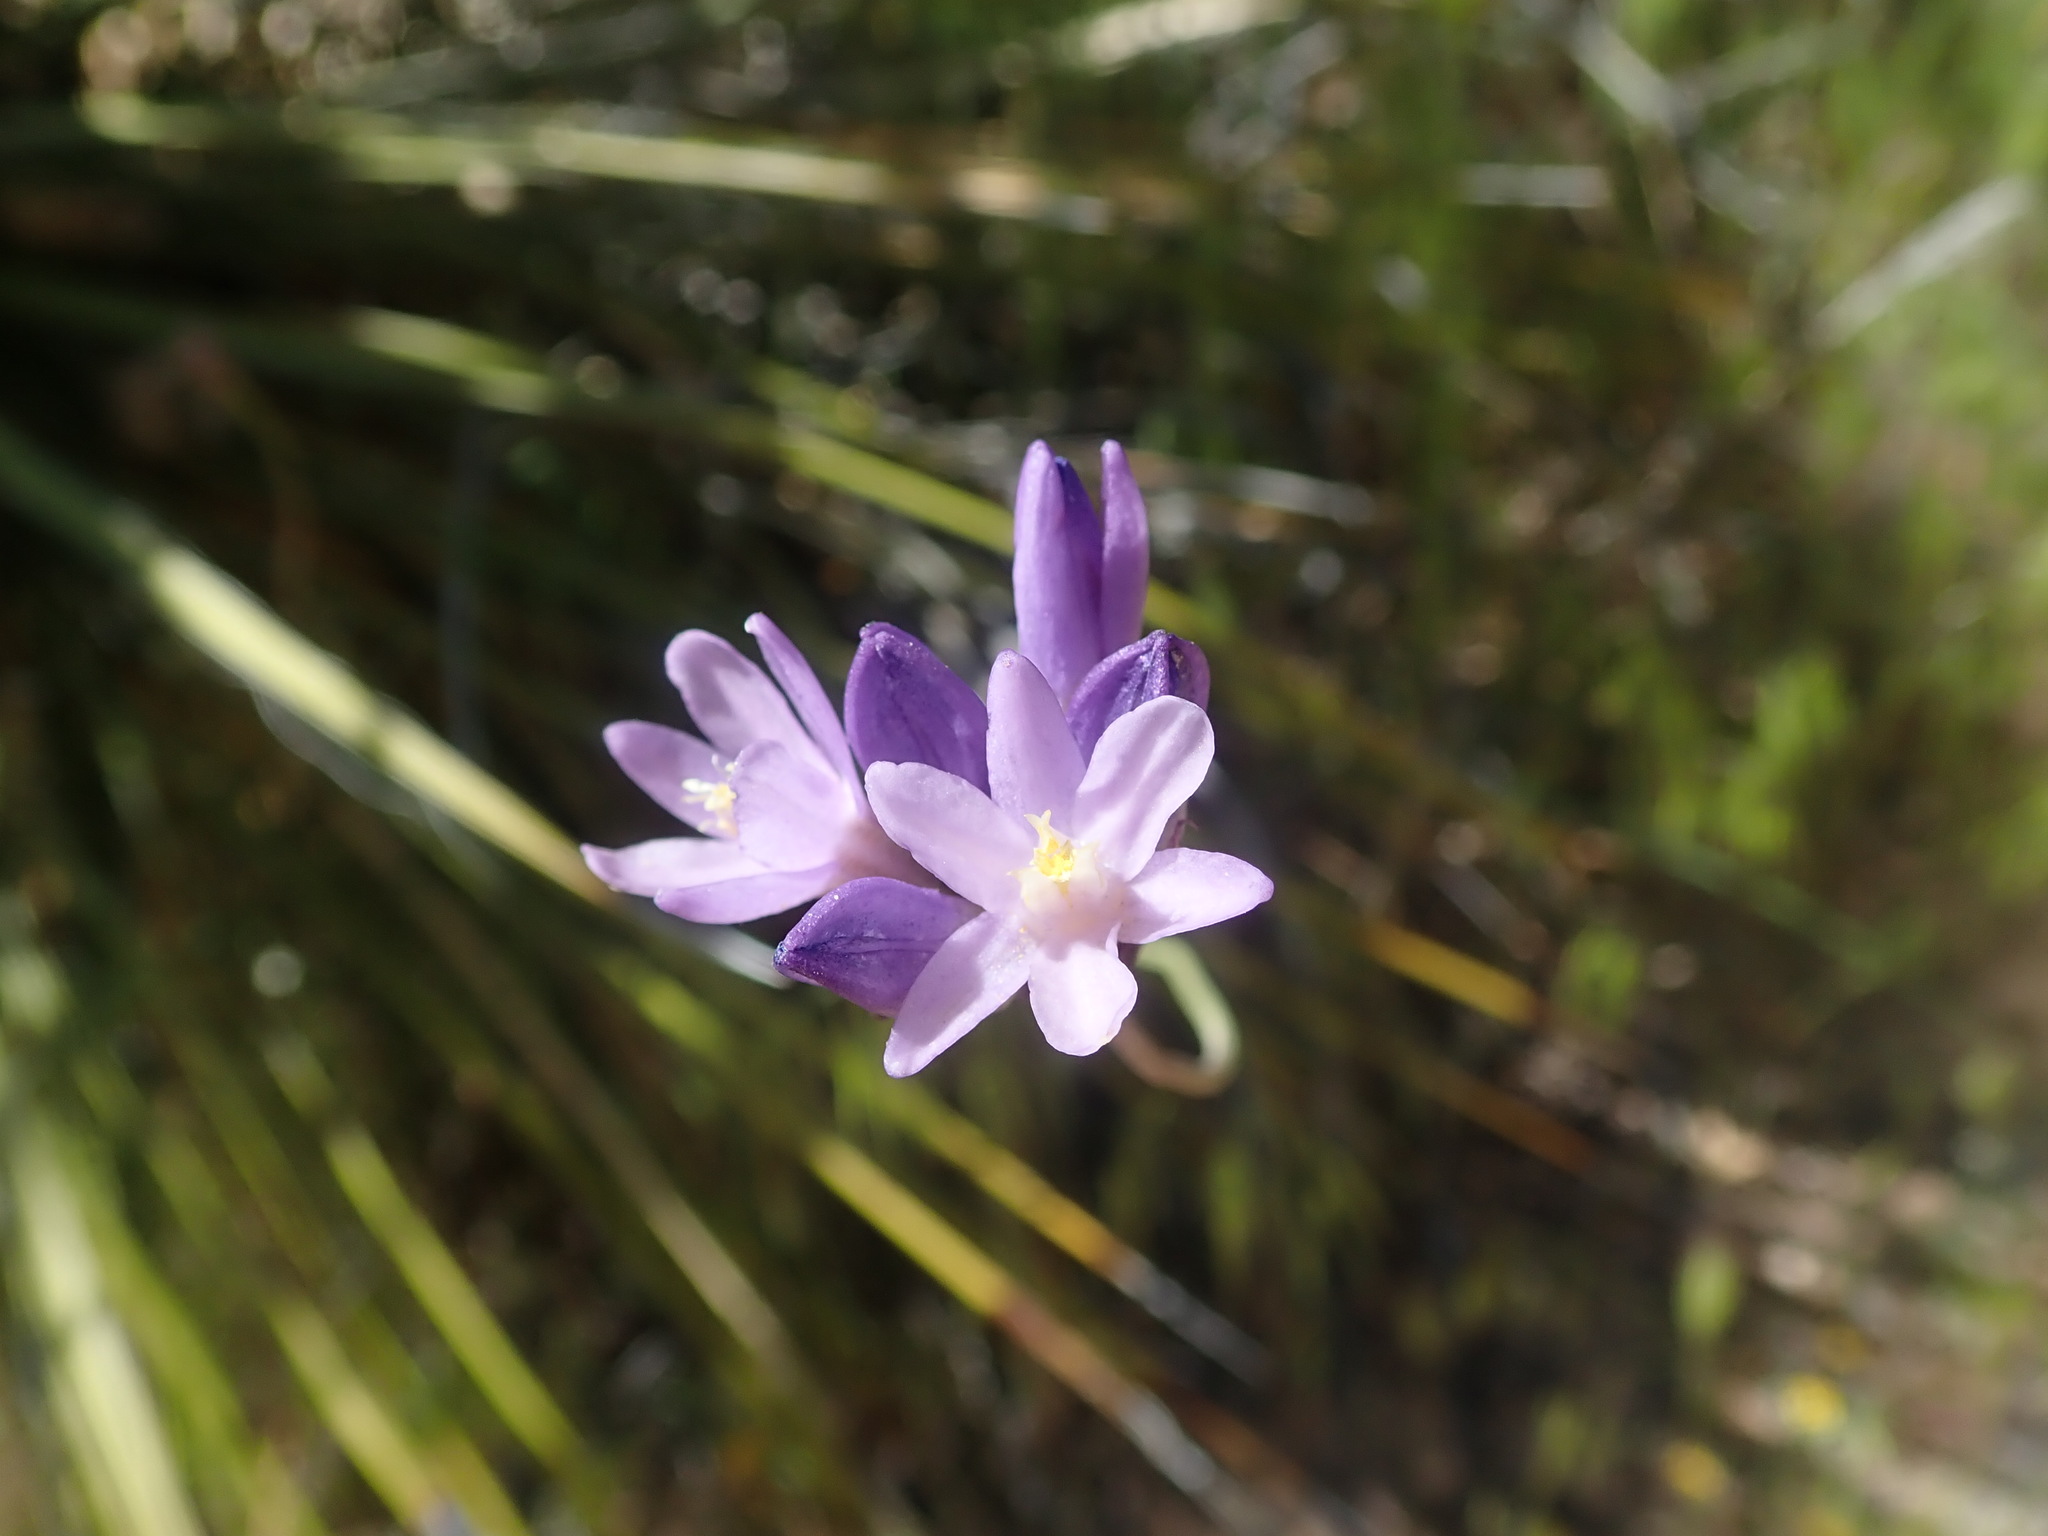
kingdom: Plantae
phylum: Tracheophyta
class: Liliopsida
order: Asparagales
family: Asparagaceae
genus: Dipterostemon
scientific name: Dipterostemon capitatus
